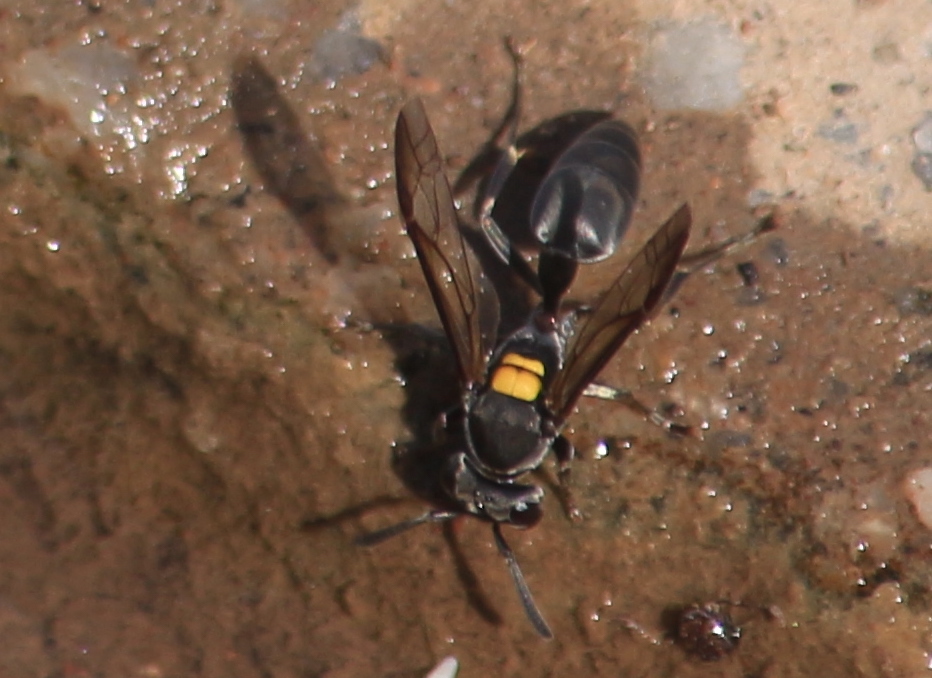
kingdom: Animalia
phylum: Arthropoda
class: Insecta
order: Hymenoptera
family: Eumenidae
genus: Polybia
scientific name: Polybia scutellaris
